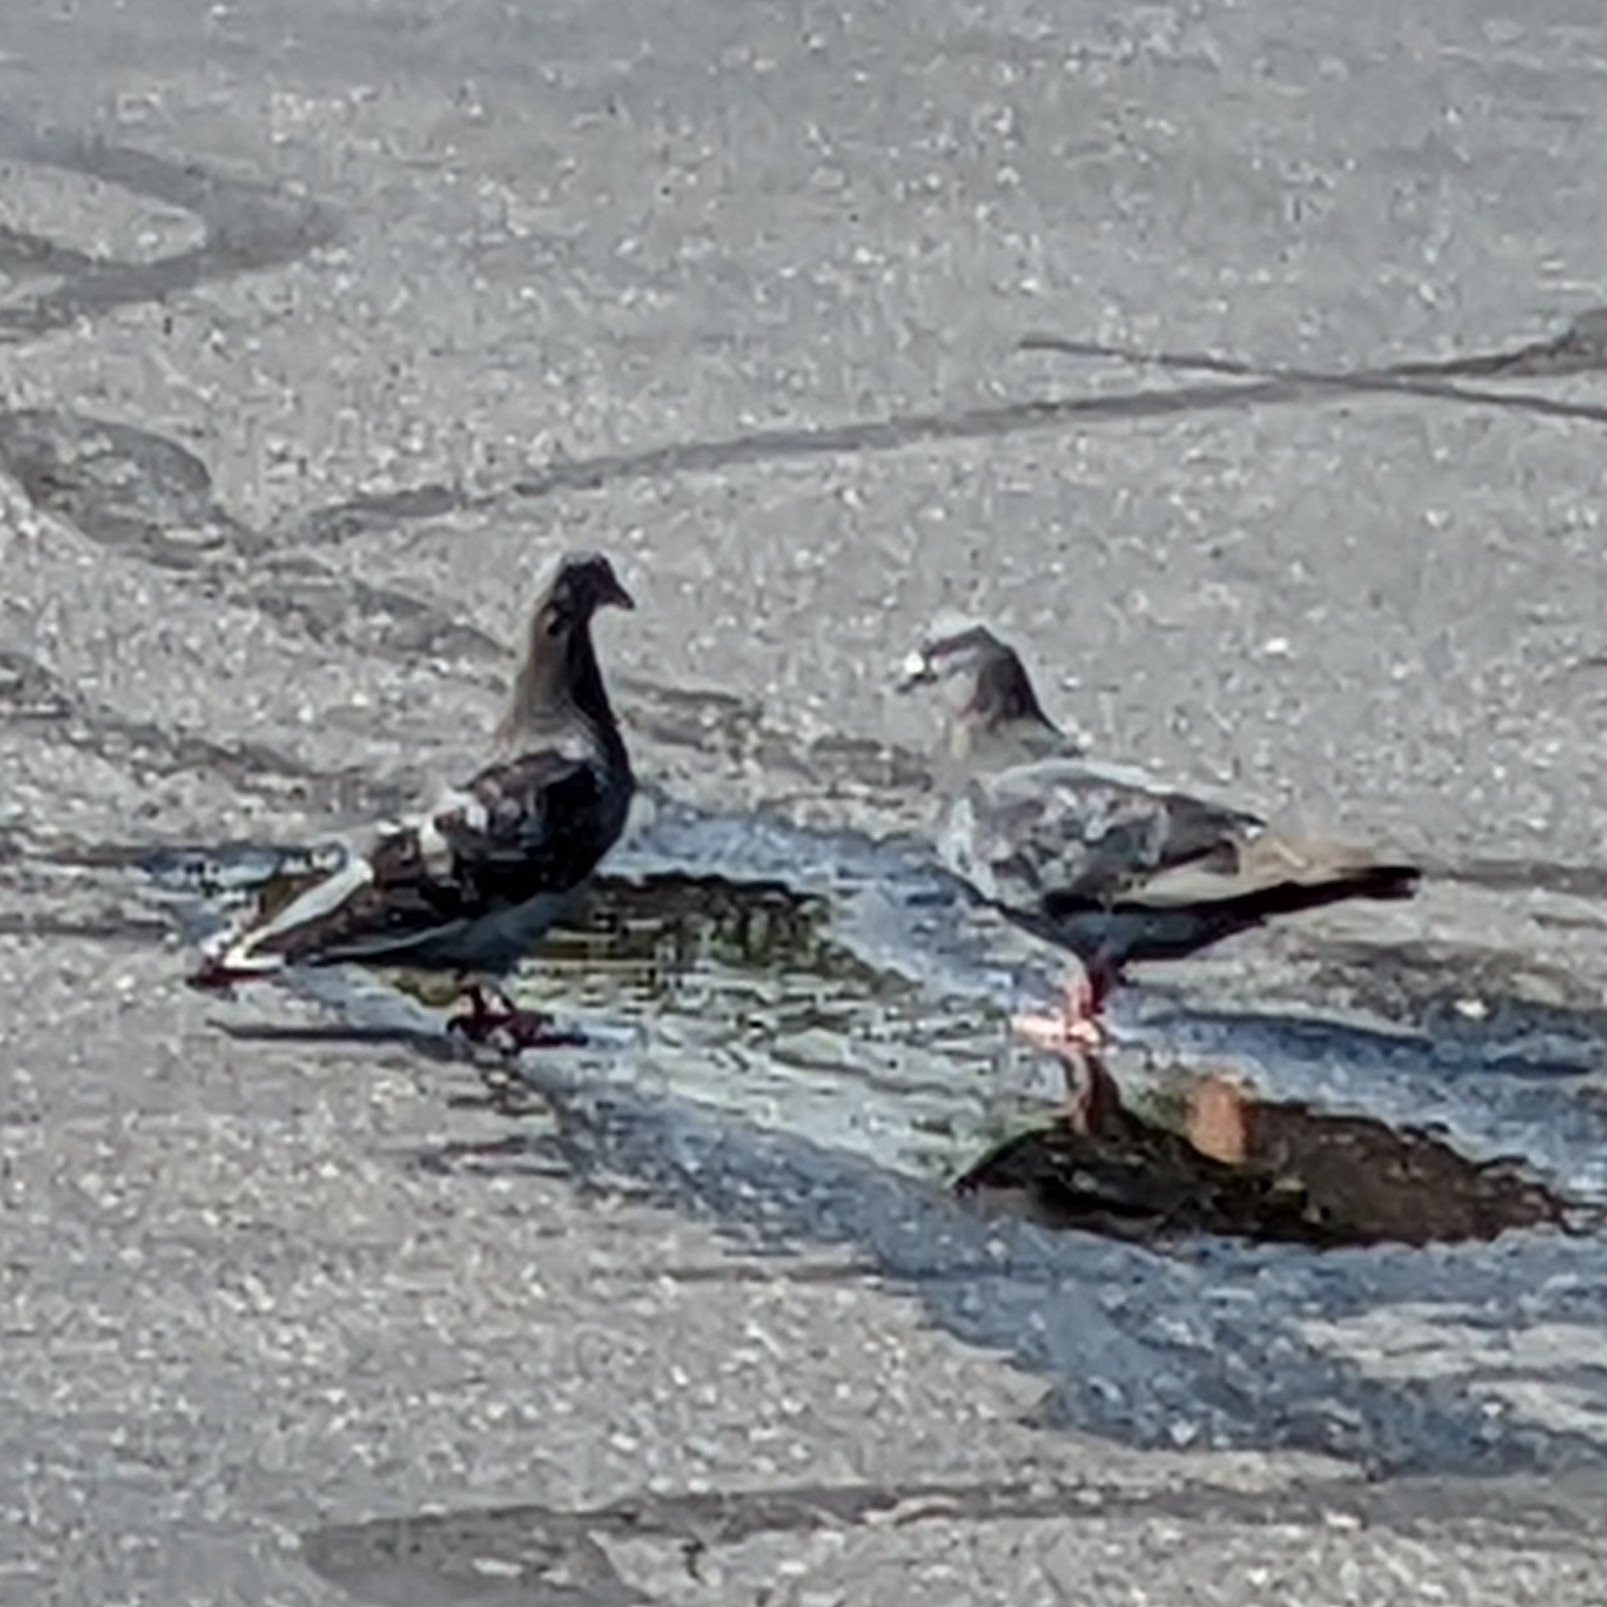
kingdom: Animalia
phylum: Chordata
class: Aves
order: Columbiformes
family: Columbidae
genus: Columba
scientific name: Columba livia
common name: Rock pigeon
